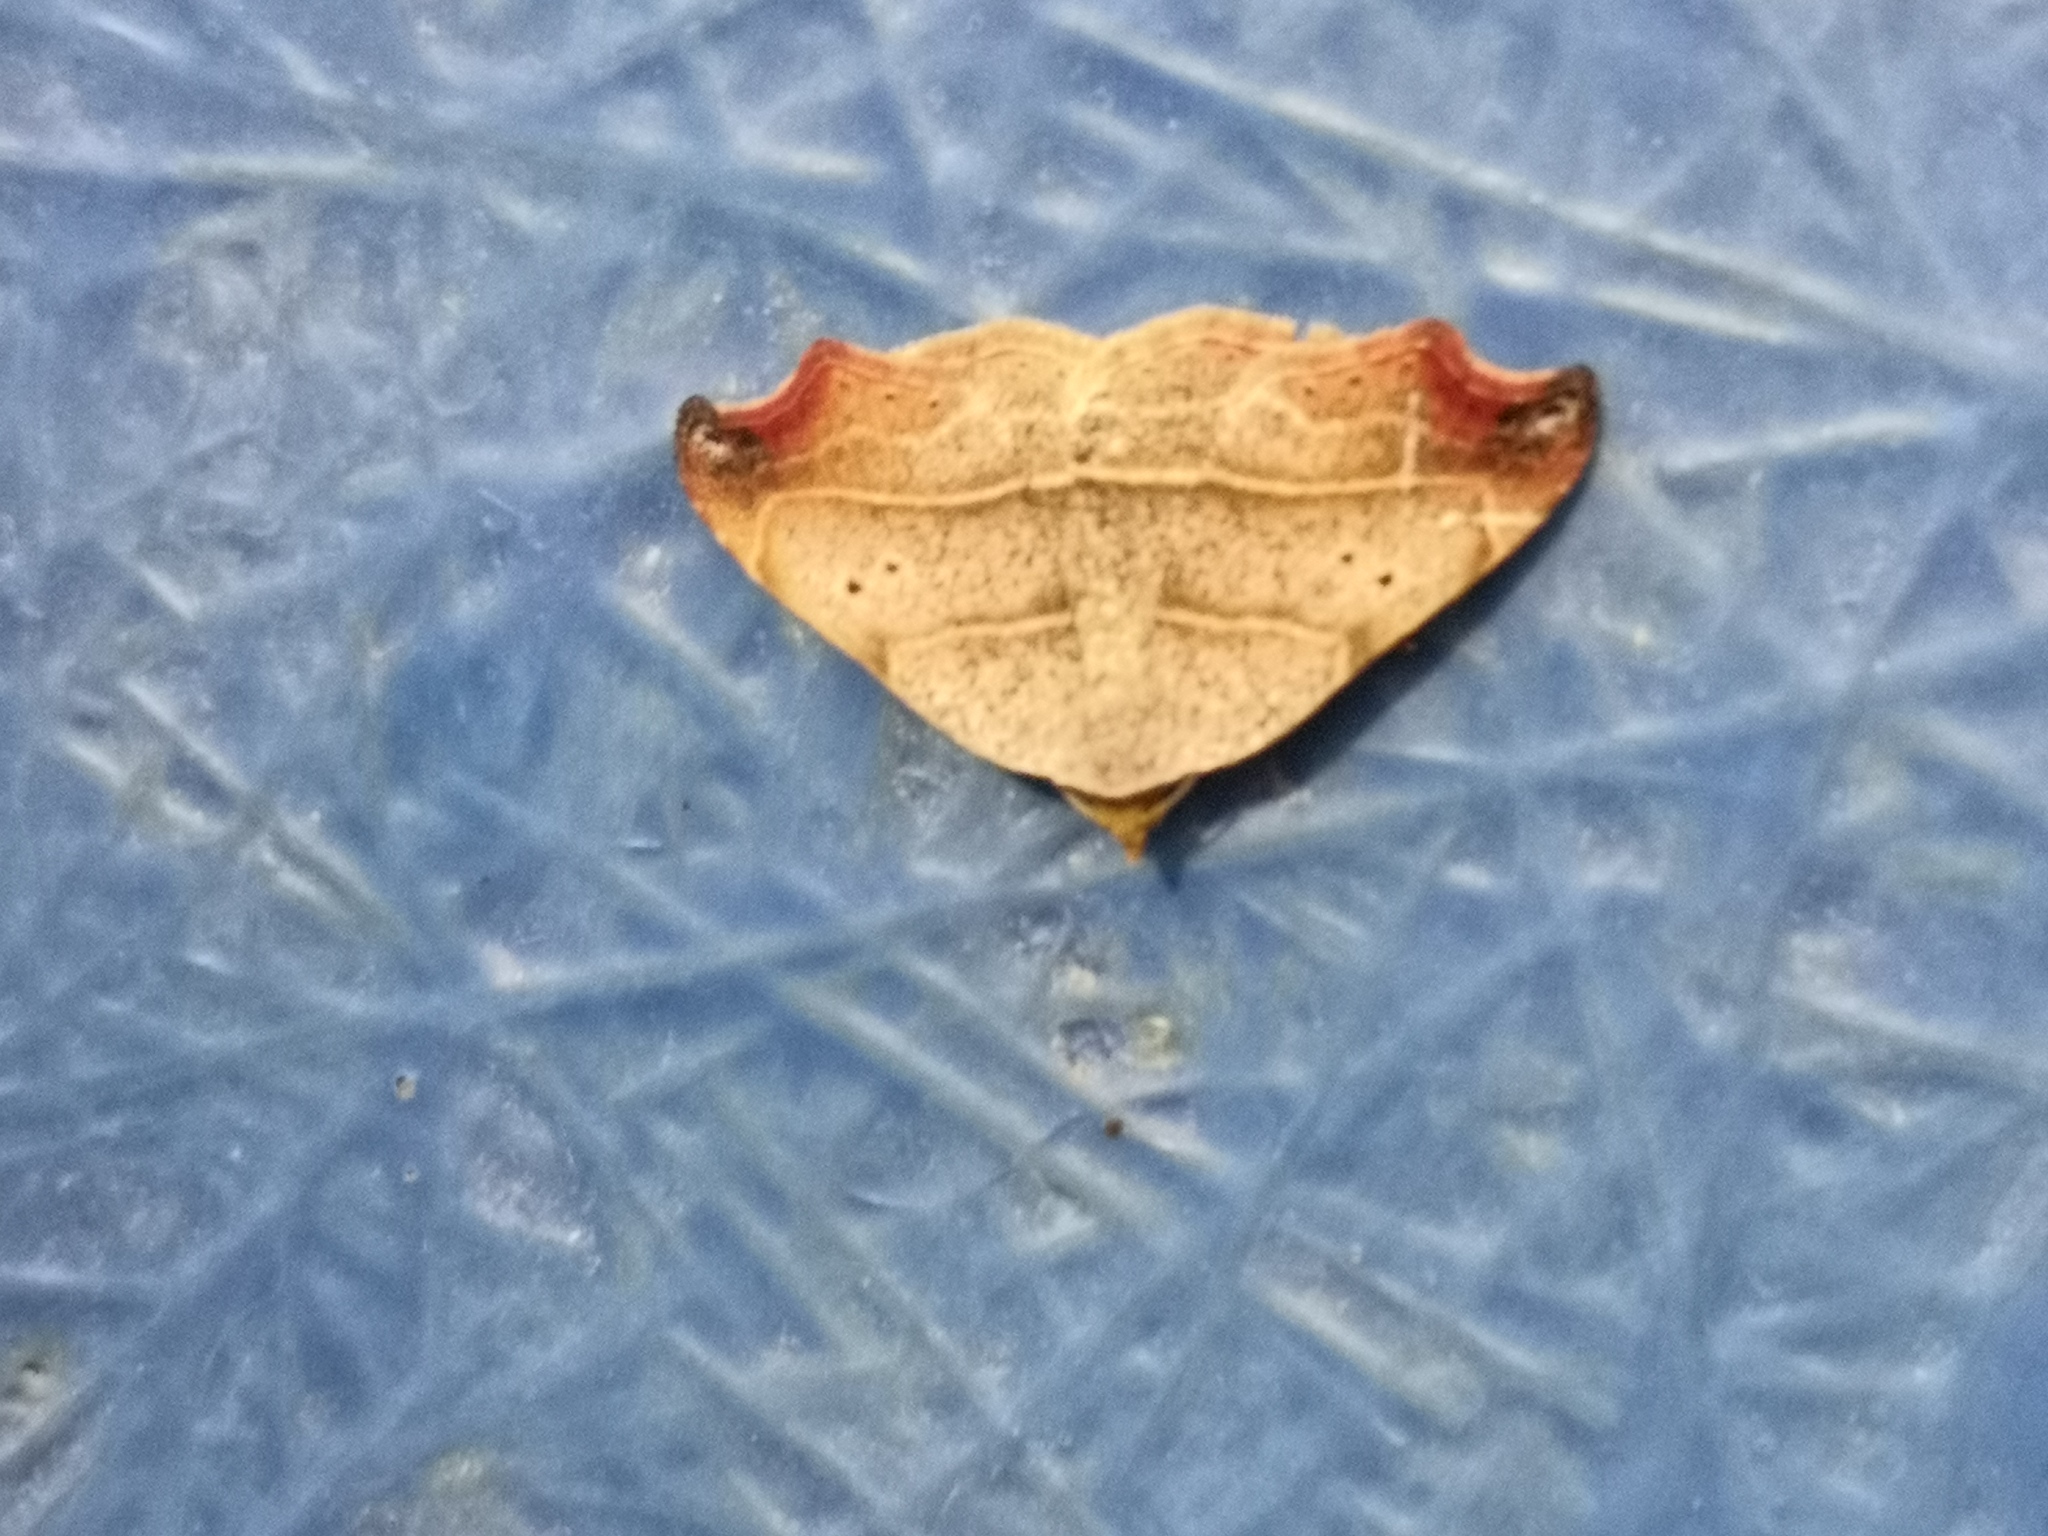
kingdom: Animalia
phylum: Arthropoda
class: Insecta
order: Lepidoptera
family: Erebidae
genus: Laspeyria
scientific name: Laspeyria flexula
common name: Beautiful hook-tip
